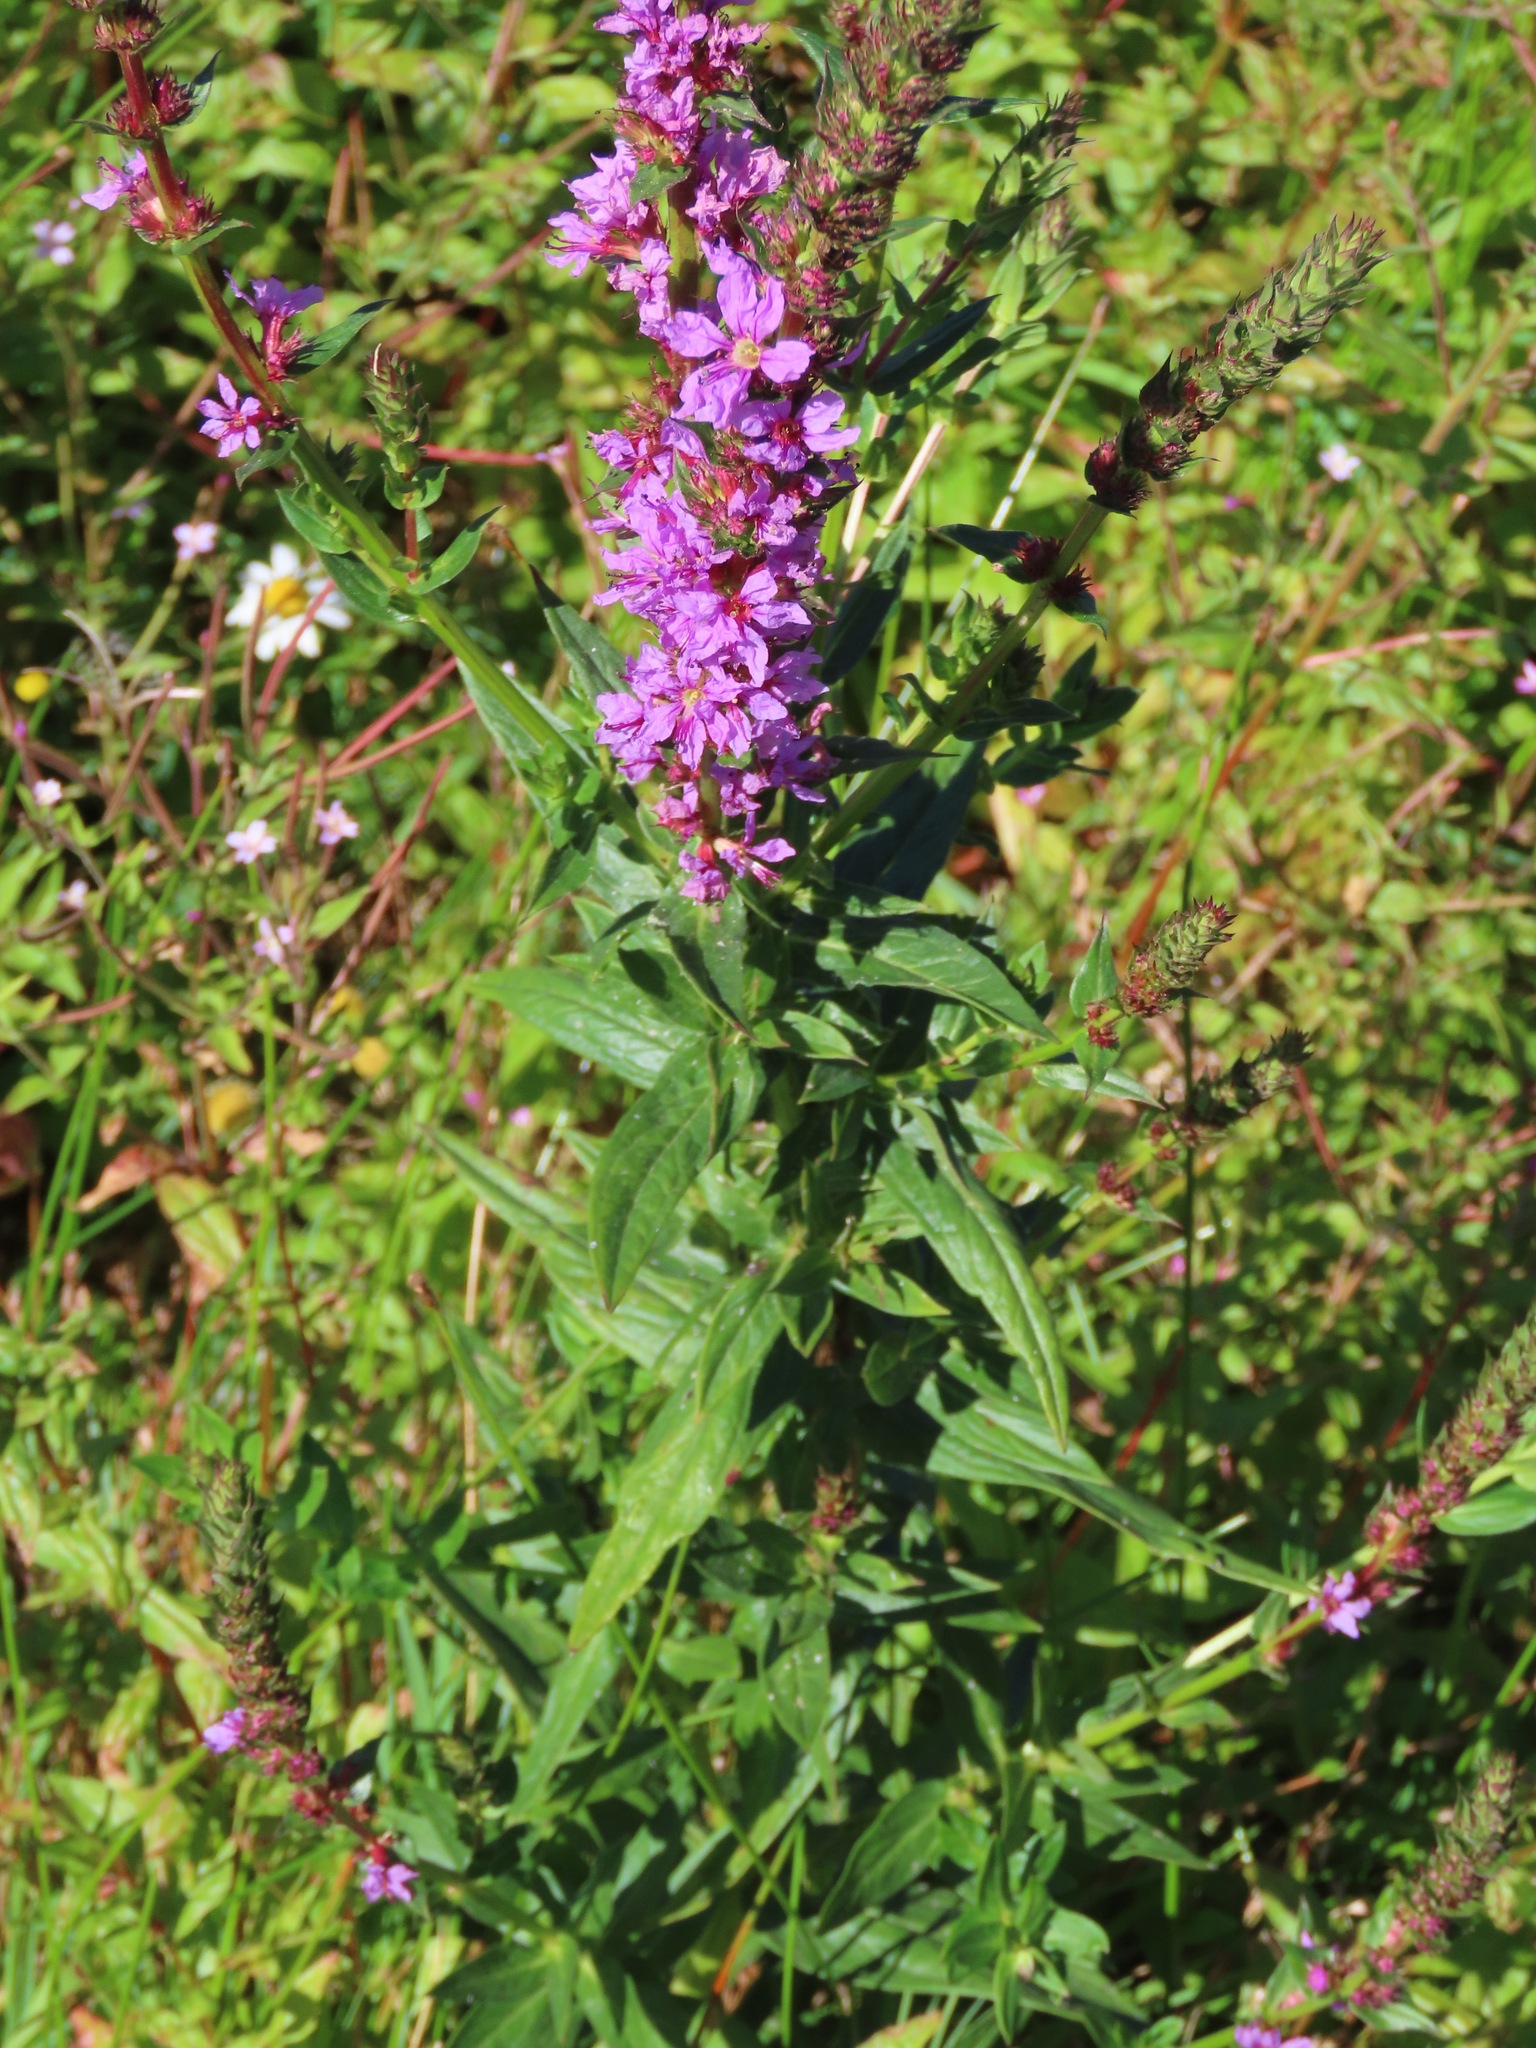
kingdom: Plantae
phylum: Tracheophyta
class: Magnoliopsida
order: Myrtales
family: Lythraceae
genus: Lythrum
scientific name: Lythrum salicaria
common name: Purple loosestrife
